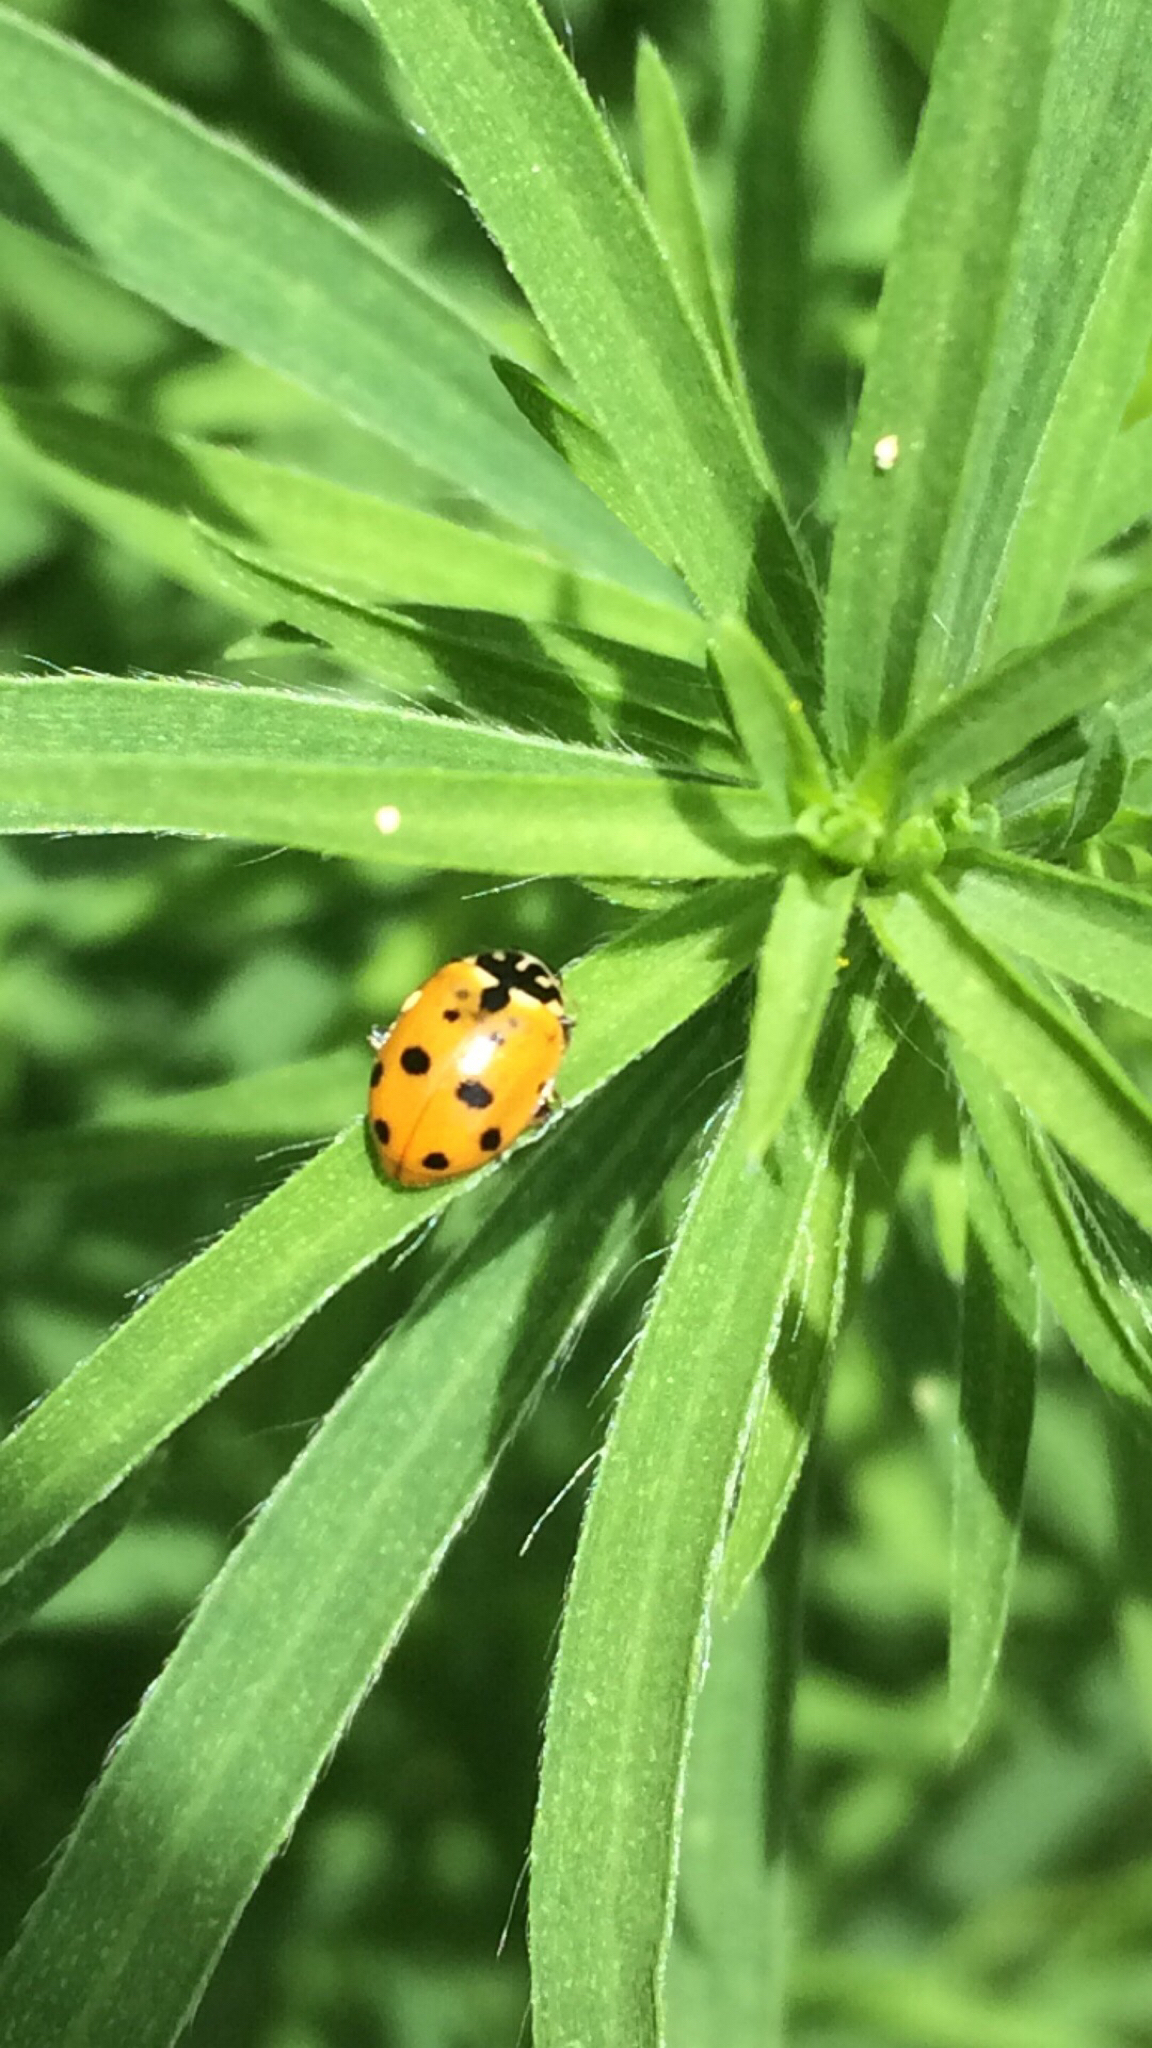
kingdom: Animalia
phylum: Arthropoda
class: Insecta
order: Coleoptera
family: Coccinellidae
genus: Hippodamia
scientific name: Hippodamia variegata
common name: Ladybird beetle
